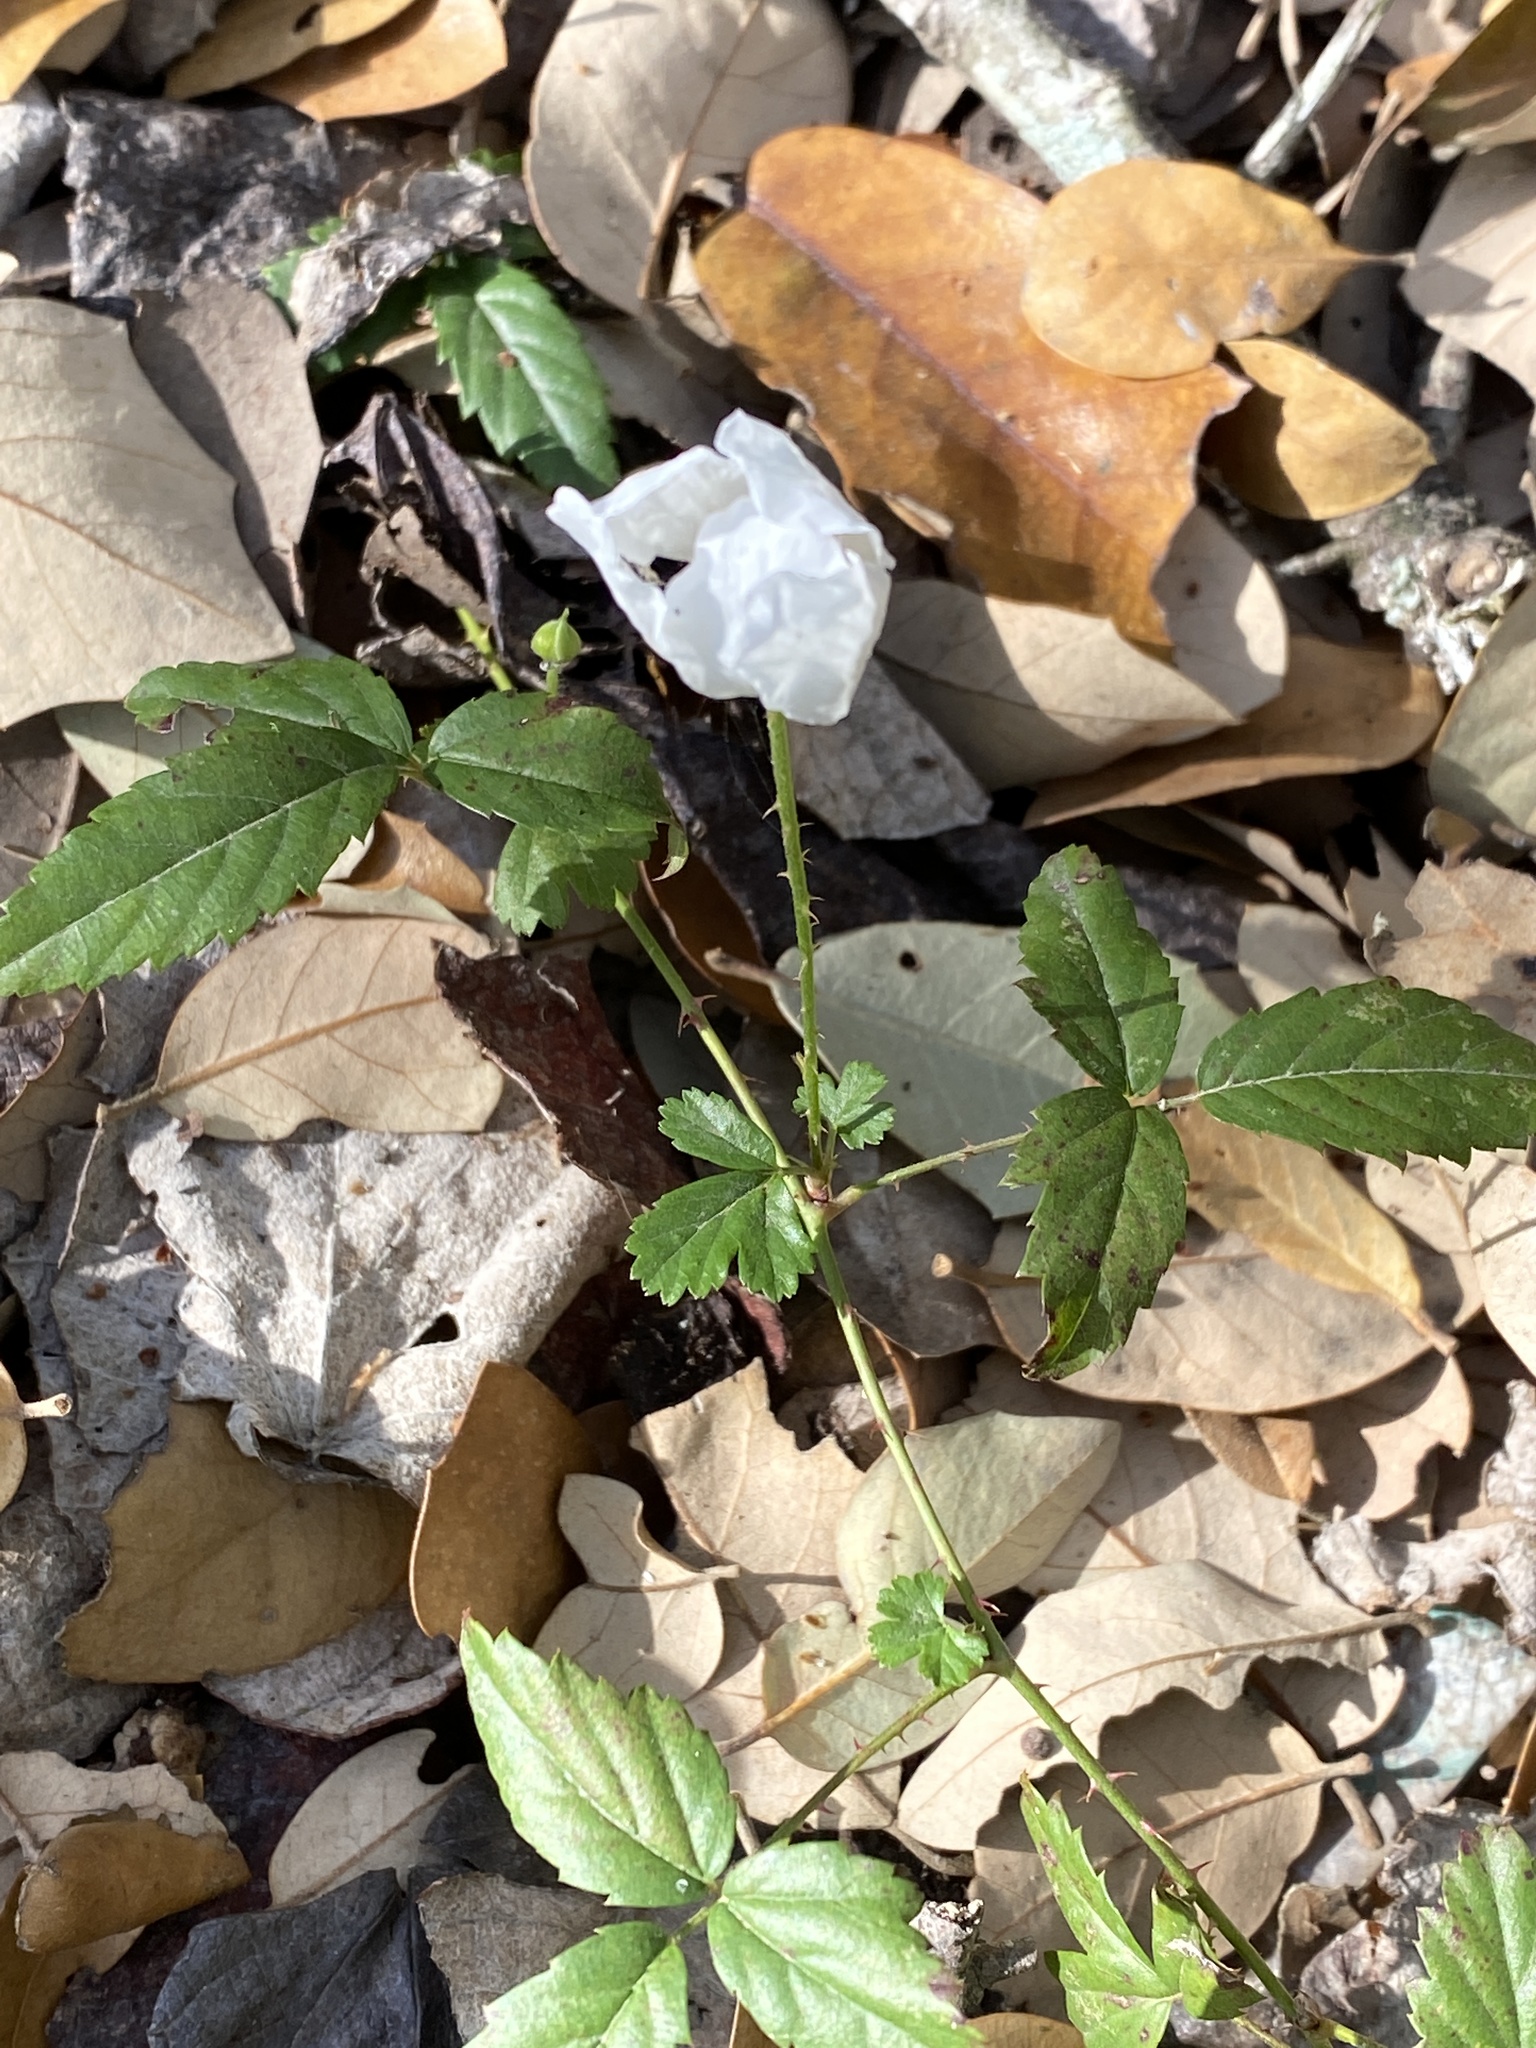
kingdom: Plantae
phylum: Tracheophyta
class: Magnoliopsida
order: Rosales
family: Rosaceae
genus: Rubus
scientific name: Rubus trivialis
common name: Southern dewberry
